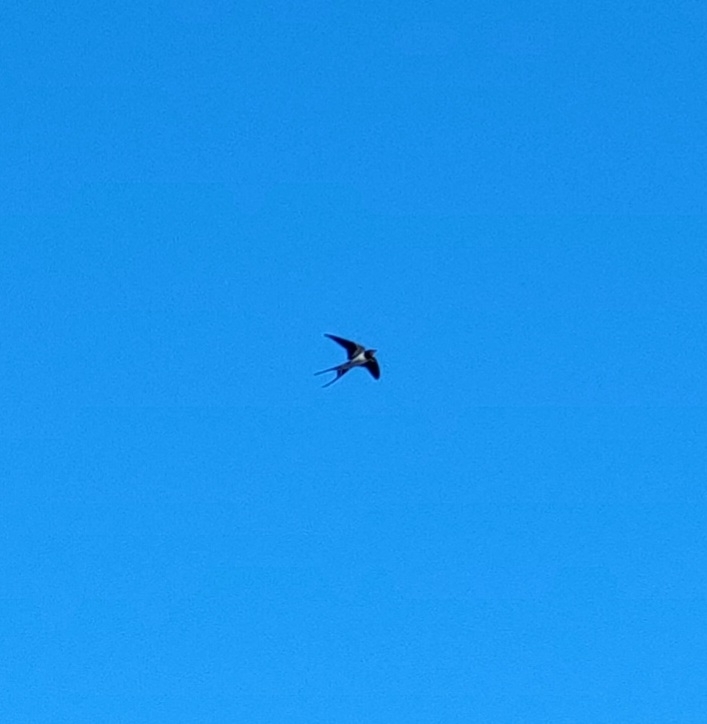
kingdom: Animalia
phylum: Chordata
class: Aves
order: Passeriformes
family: Hirundinidae
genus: Hirundo
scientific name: Hirundo rustica
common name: Barn swallow
